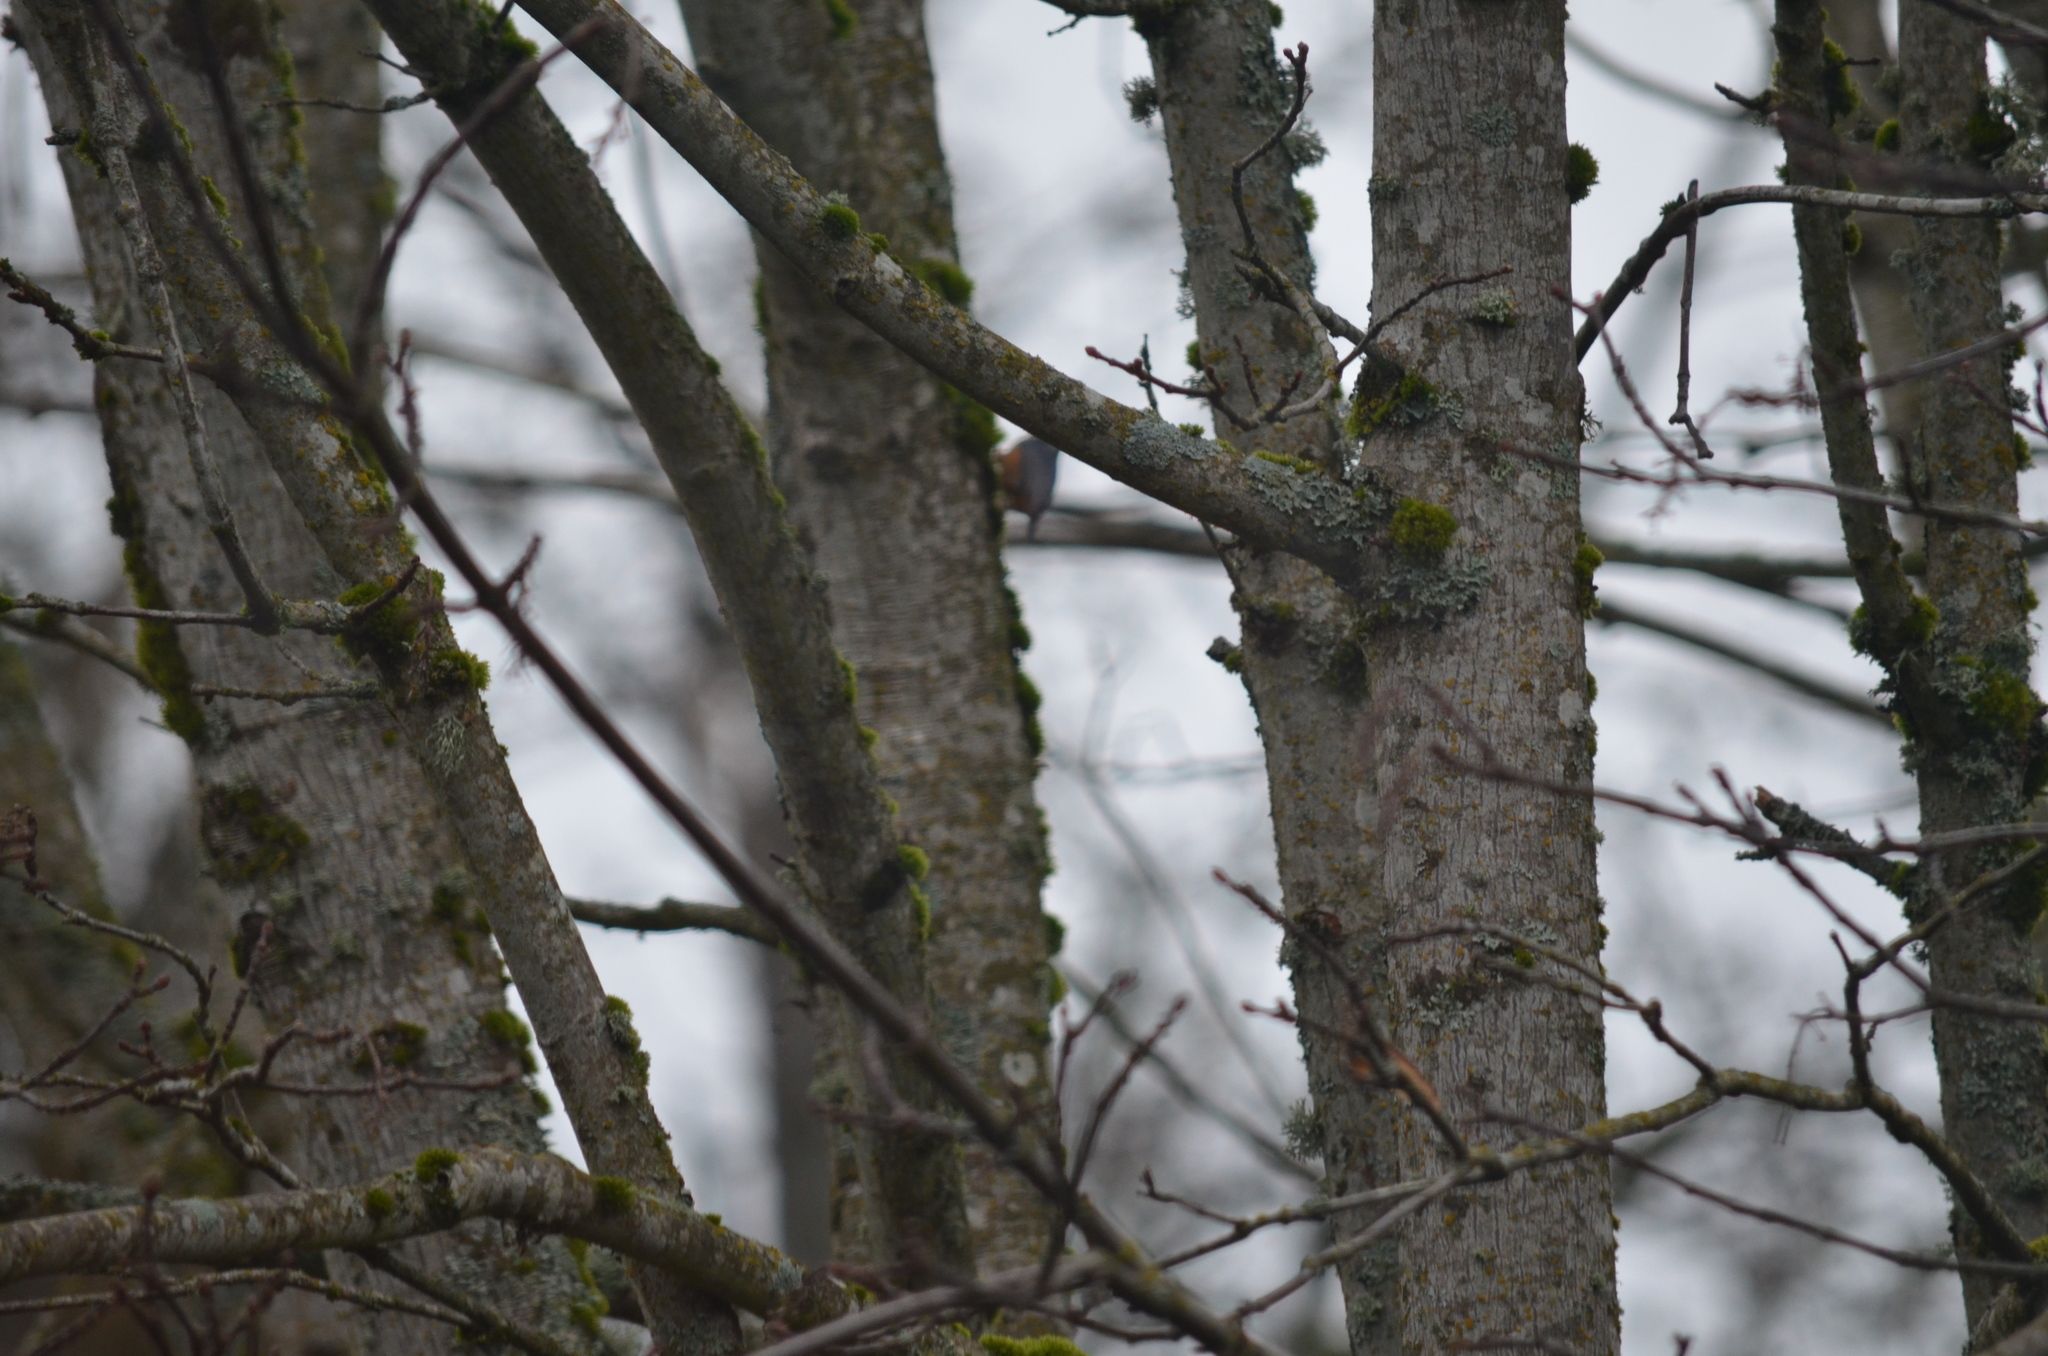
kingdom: Animalia
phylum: Chordata
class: Aves
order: Passeriformes
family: Sittidae
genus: Sitta
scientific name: Sitta canadensis
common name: Red-breasted nuthatch
